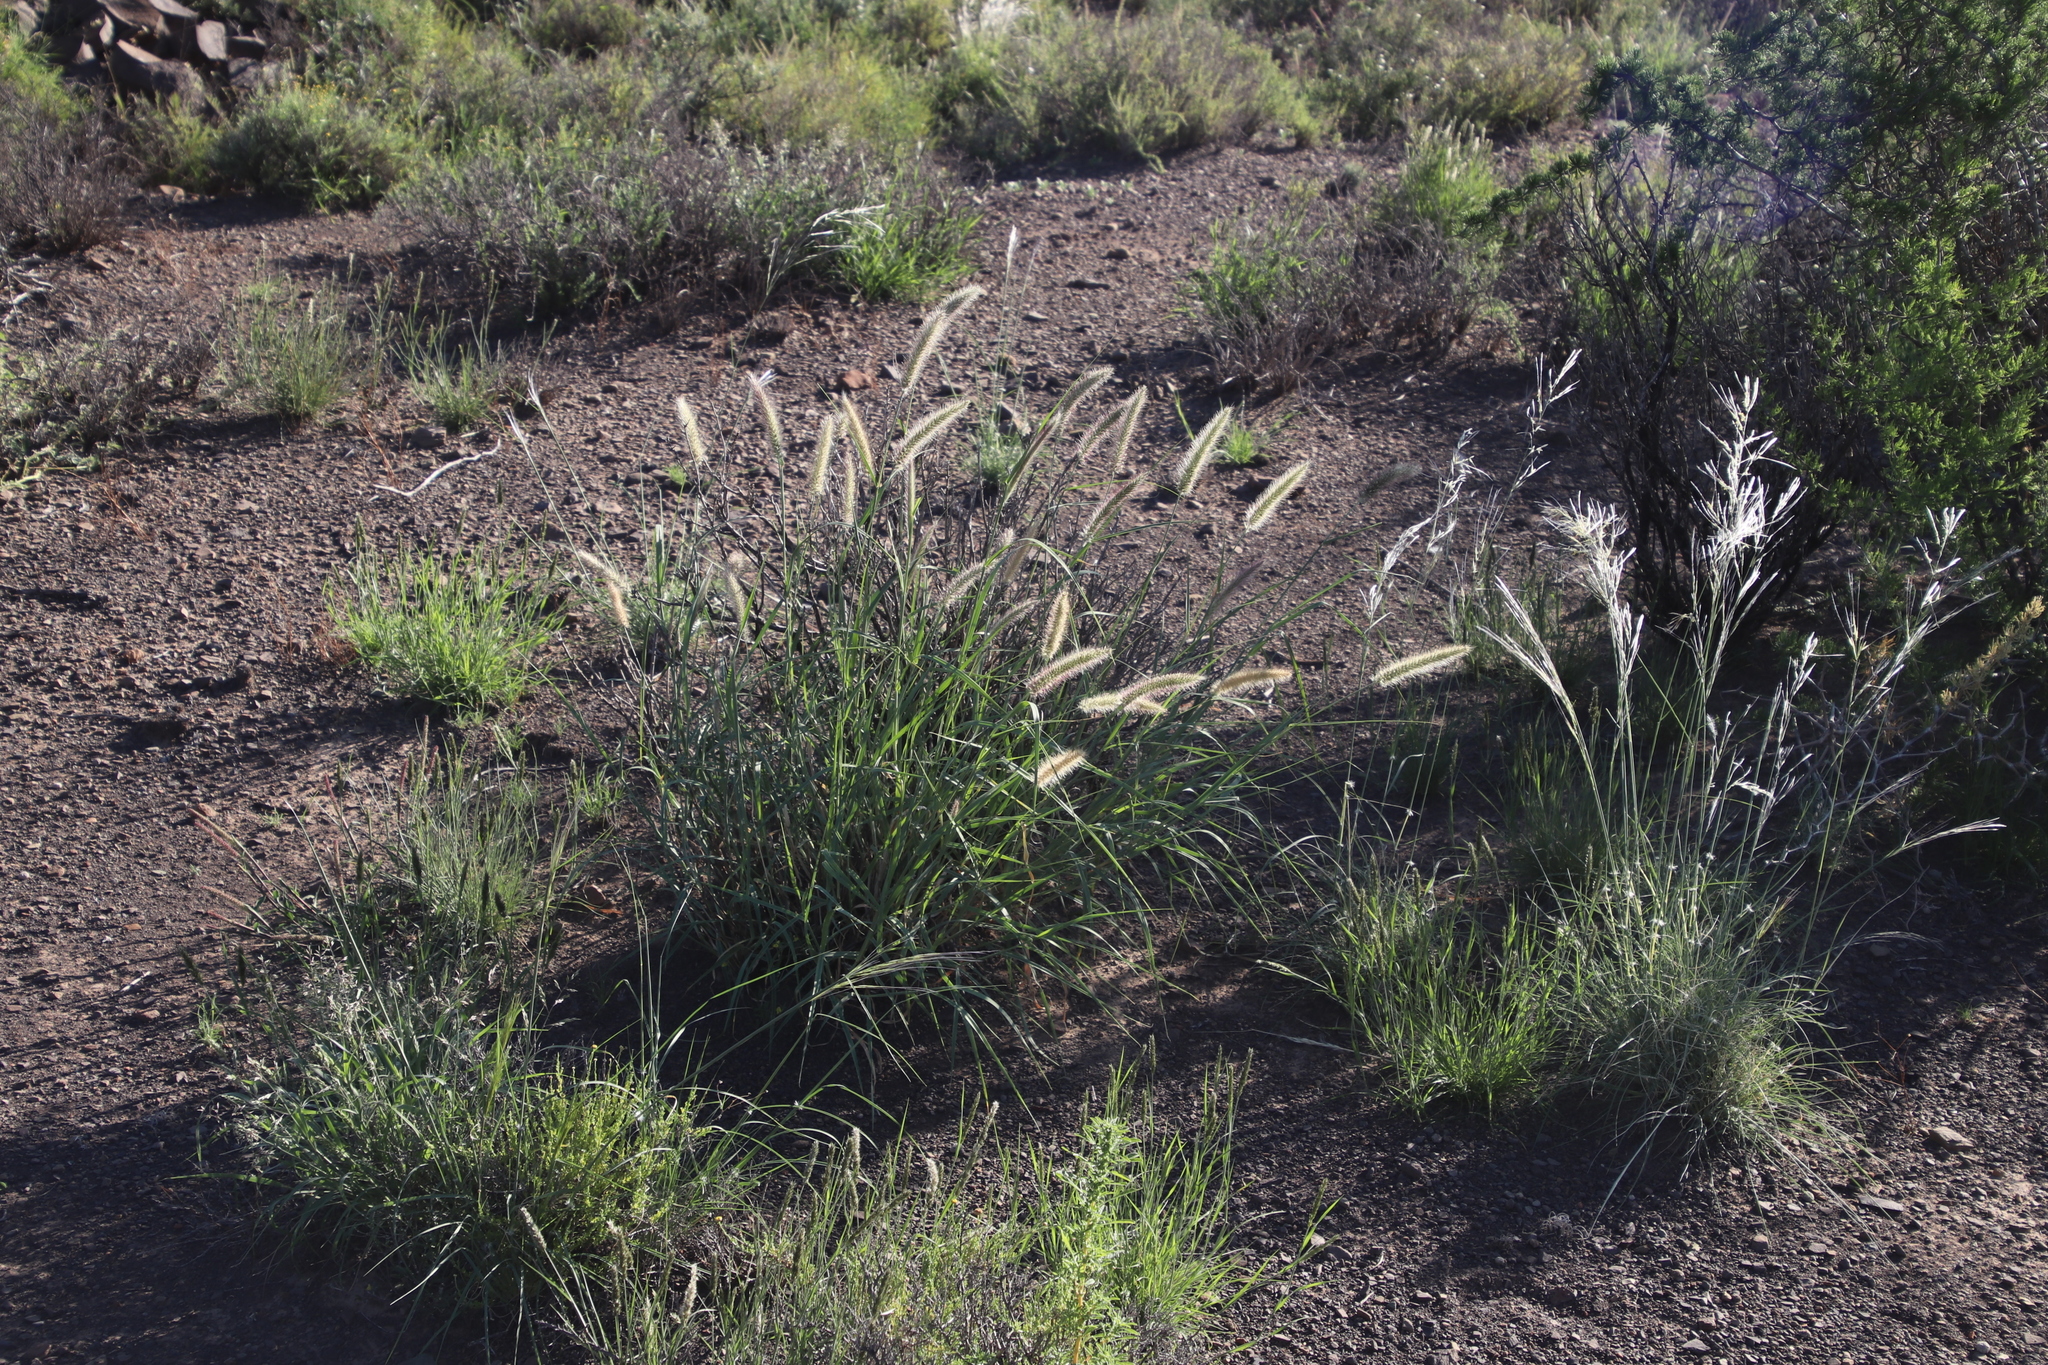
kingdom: Plantae
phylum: Tracheophyta
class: Liliopsida
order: Poales
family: Poaceae
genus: Cenchrus
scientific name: Cenchrus ciliaris
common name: Buffelgrass
